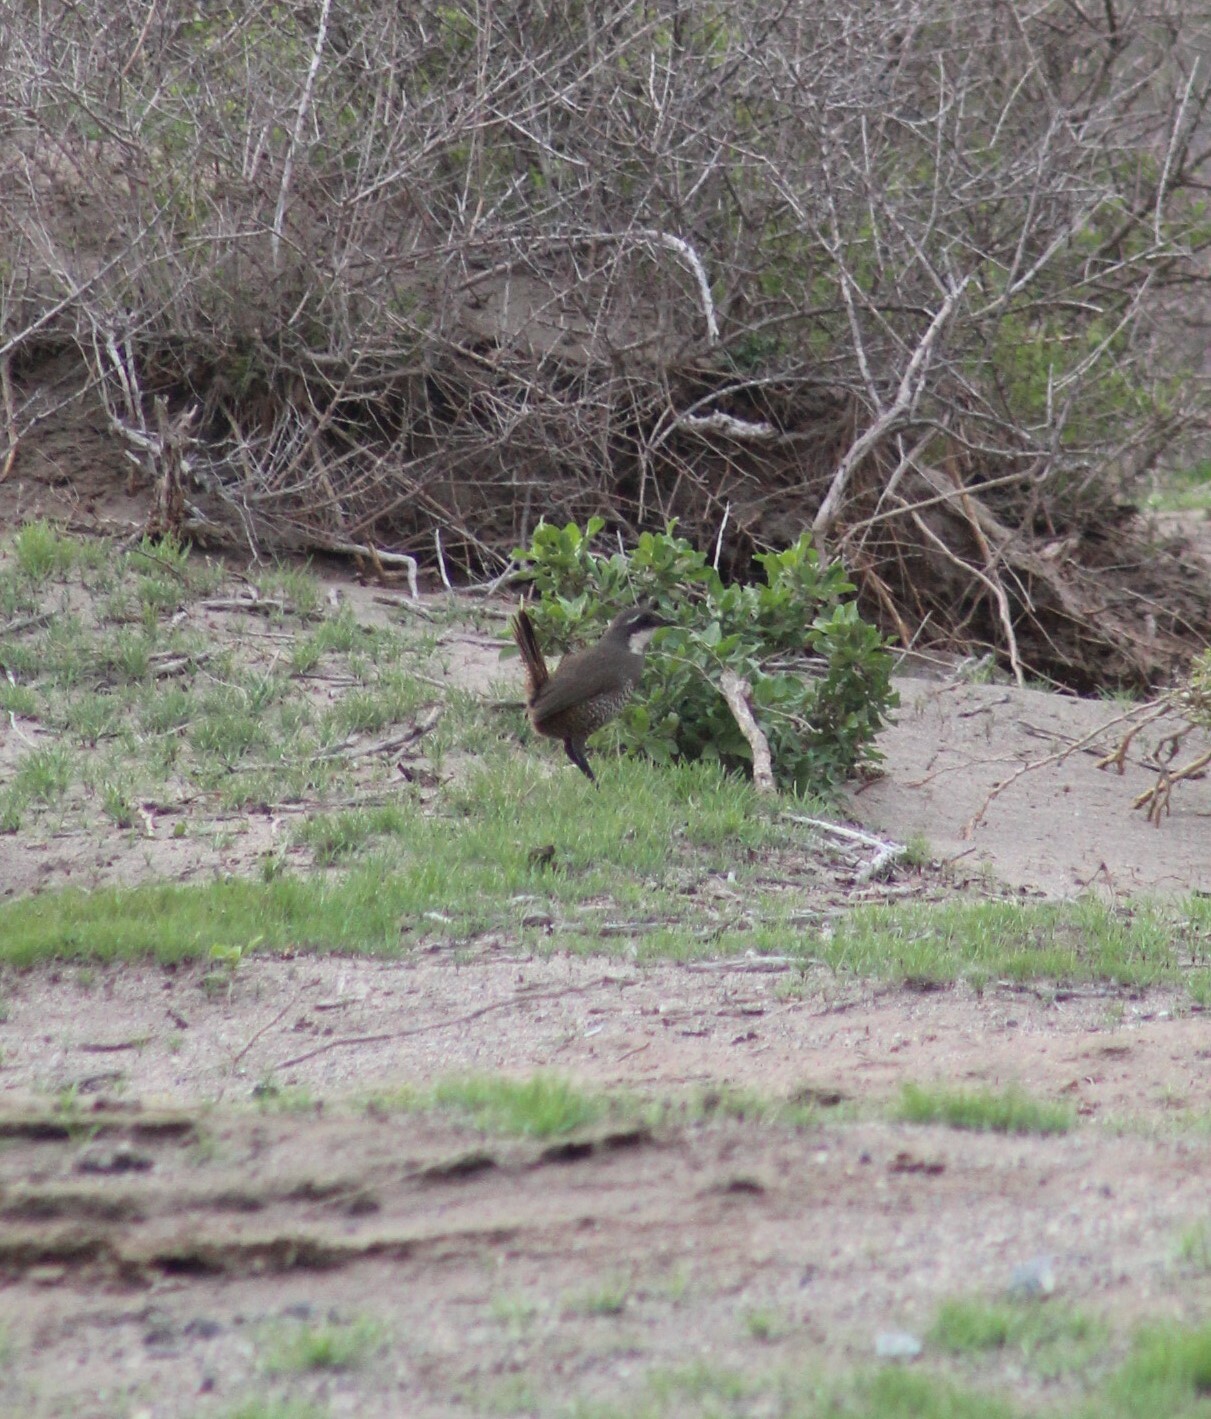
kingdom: Animalia
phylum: Chordata
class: Aves
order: Passeriformes
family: Rhinocryptidae
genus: Pteroptochos
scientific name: Pteroptochos megapodius
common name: Moustached turca
